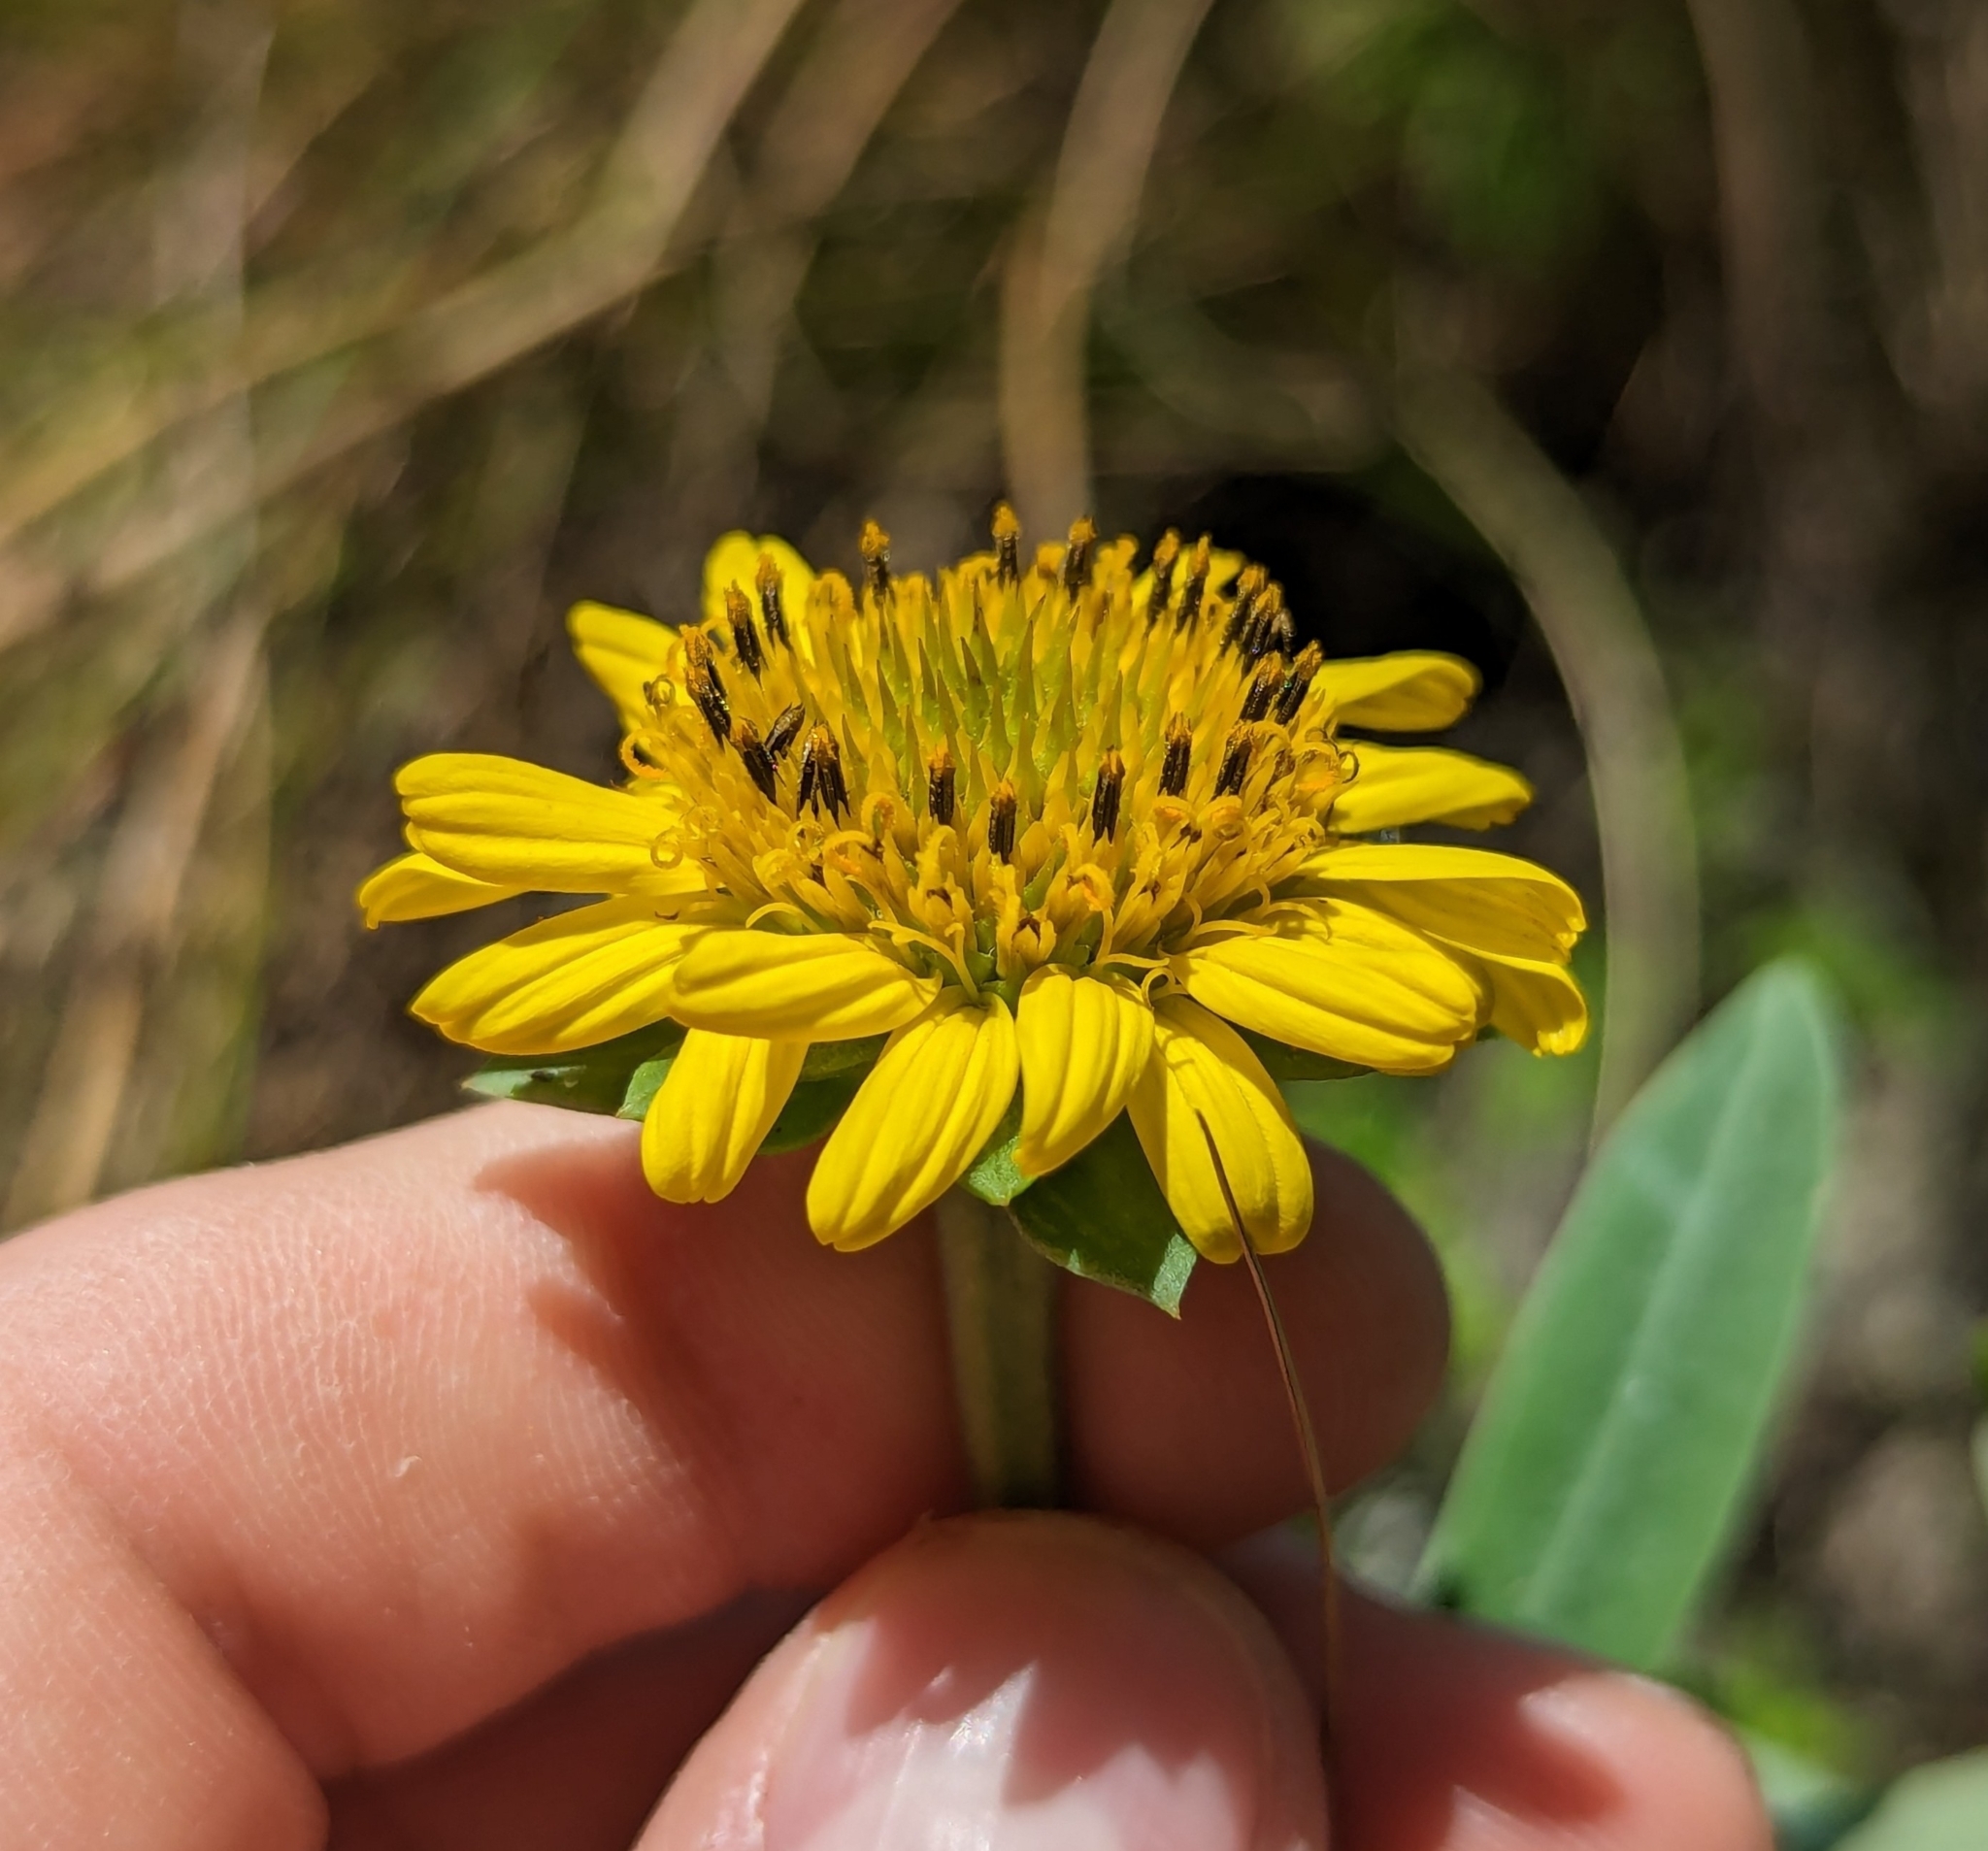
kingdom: Plantae
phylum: Tracheophyta
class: Magnoliopsida
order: Asterales
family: Asteraceae
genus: Borrichia
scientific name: Borrichia frutescens
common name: Sea oxeye
